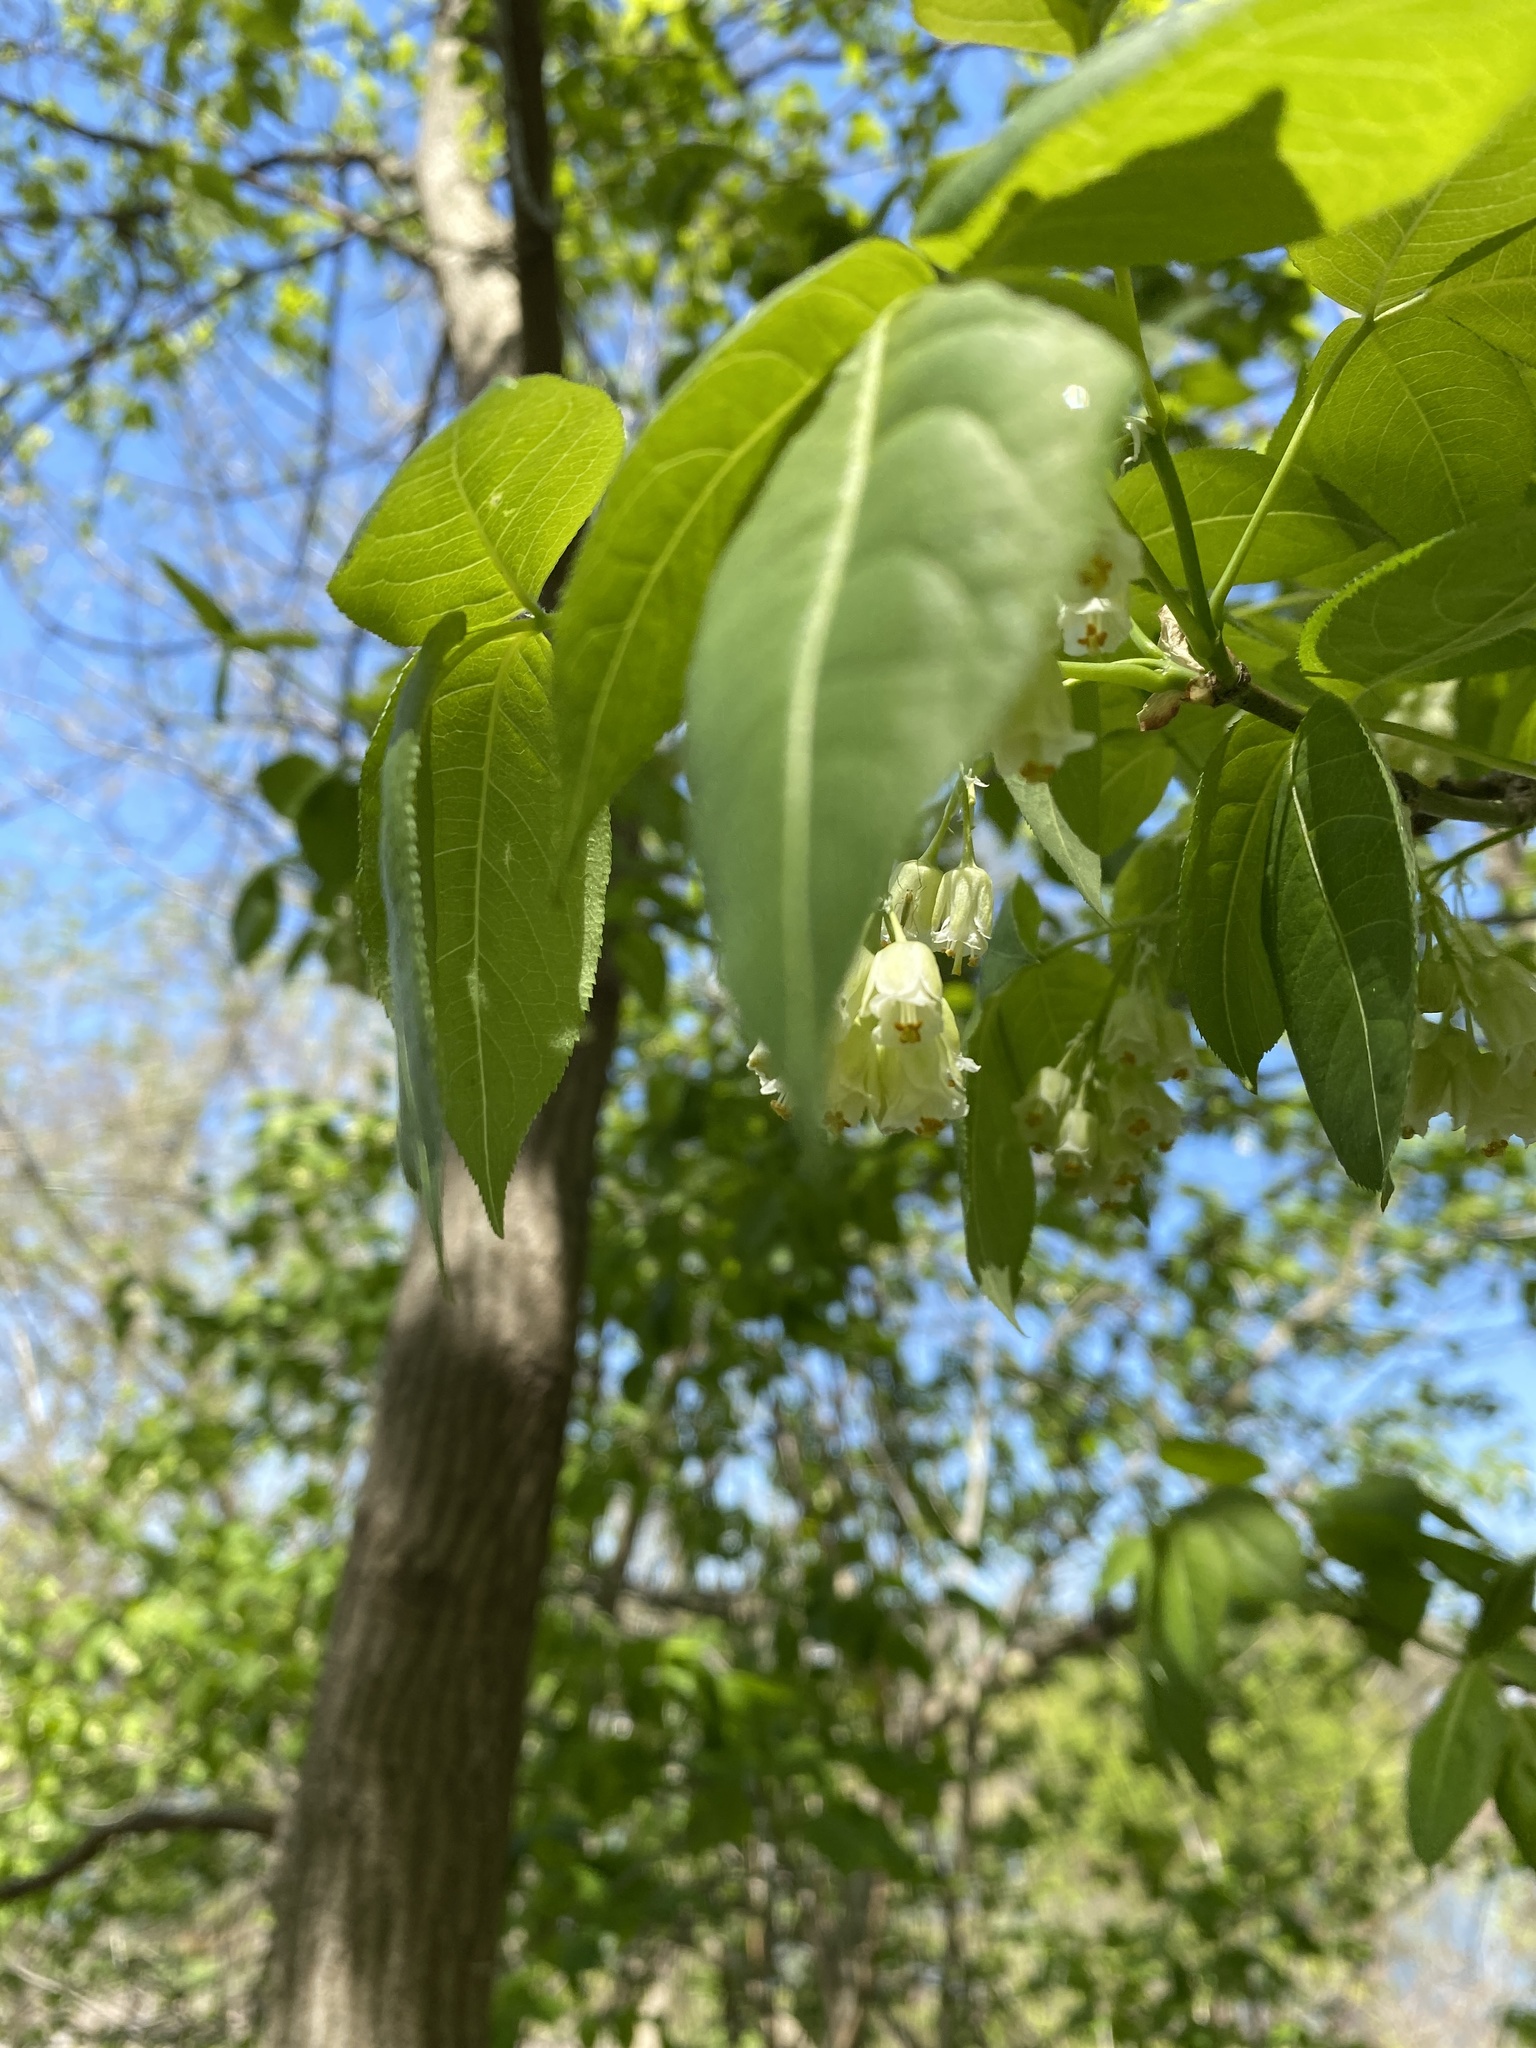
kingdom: Plantae
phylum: Tracheophyta
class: Magnoliopsida
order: Crossosomatales
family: Staphyleaceae
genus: Staphylea
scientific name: Staphylea trifolia
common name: American bladdernut
